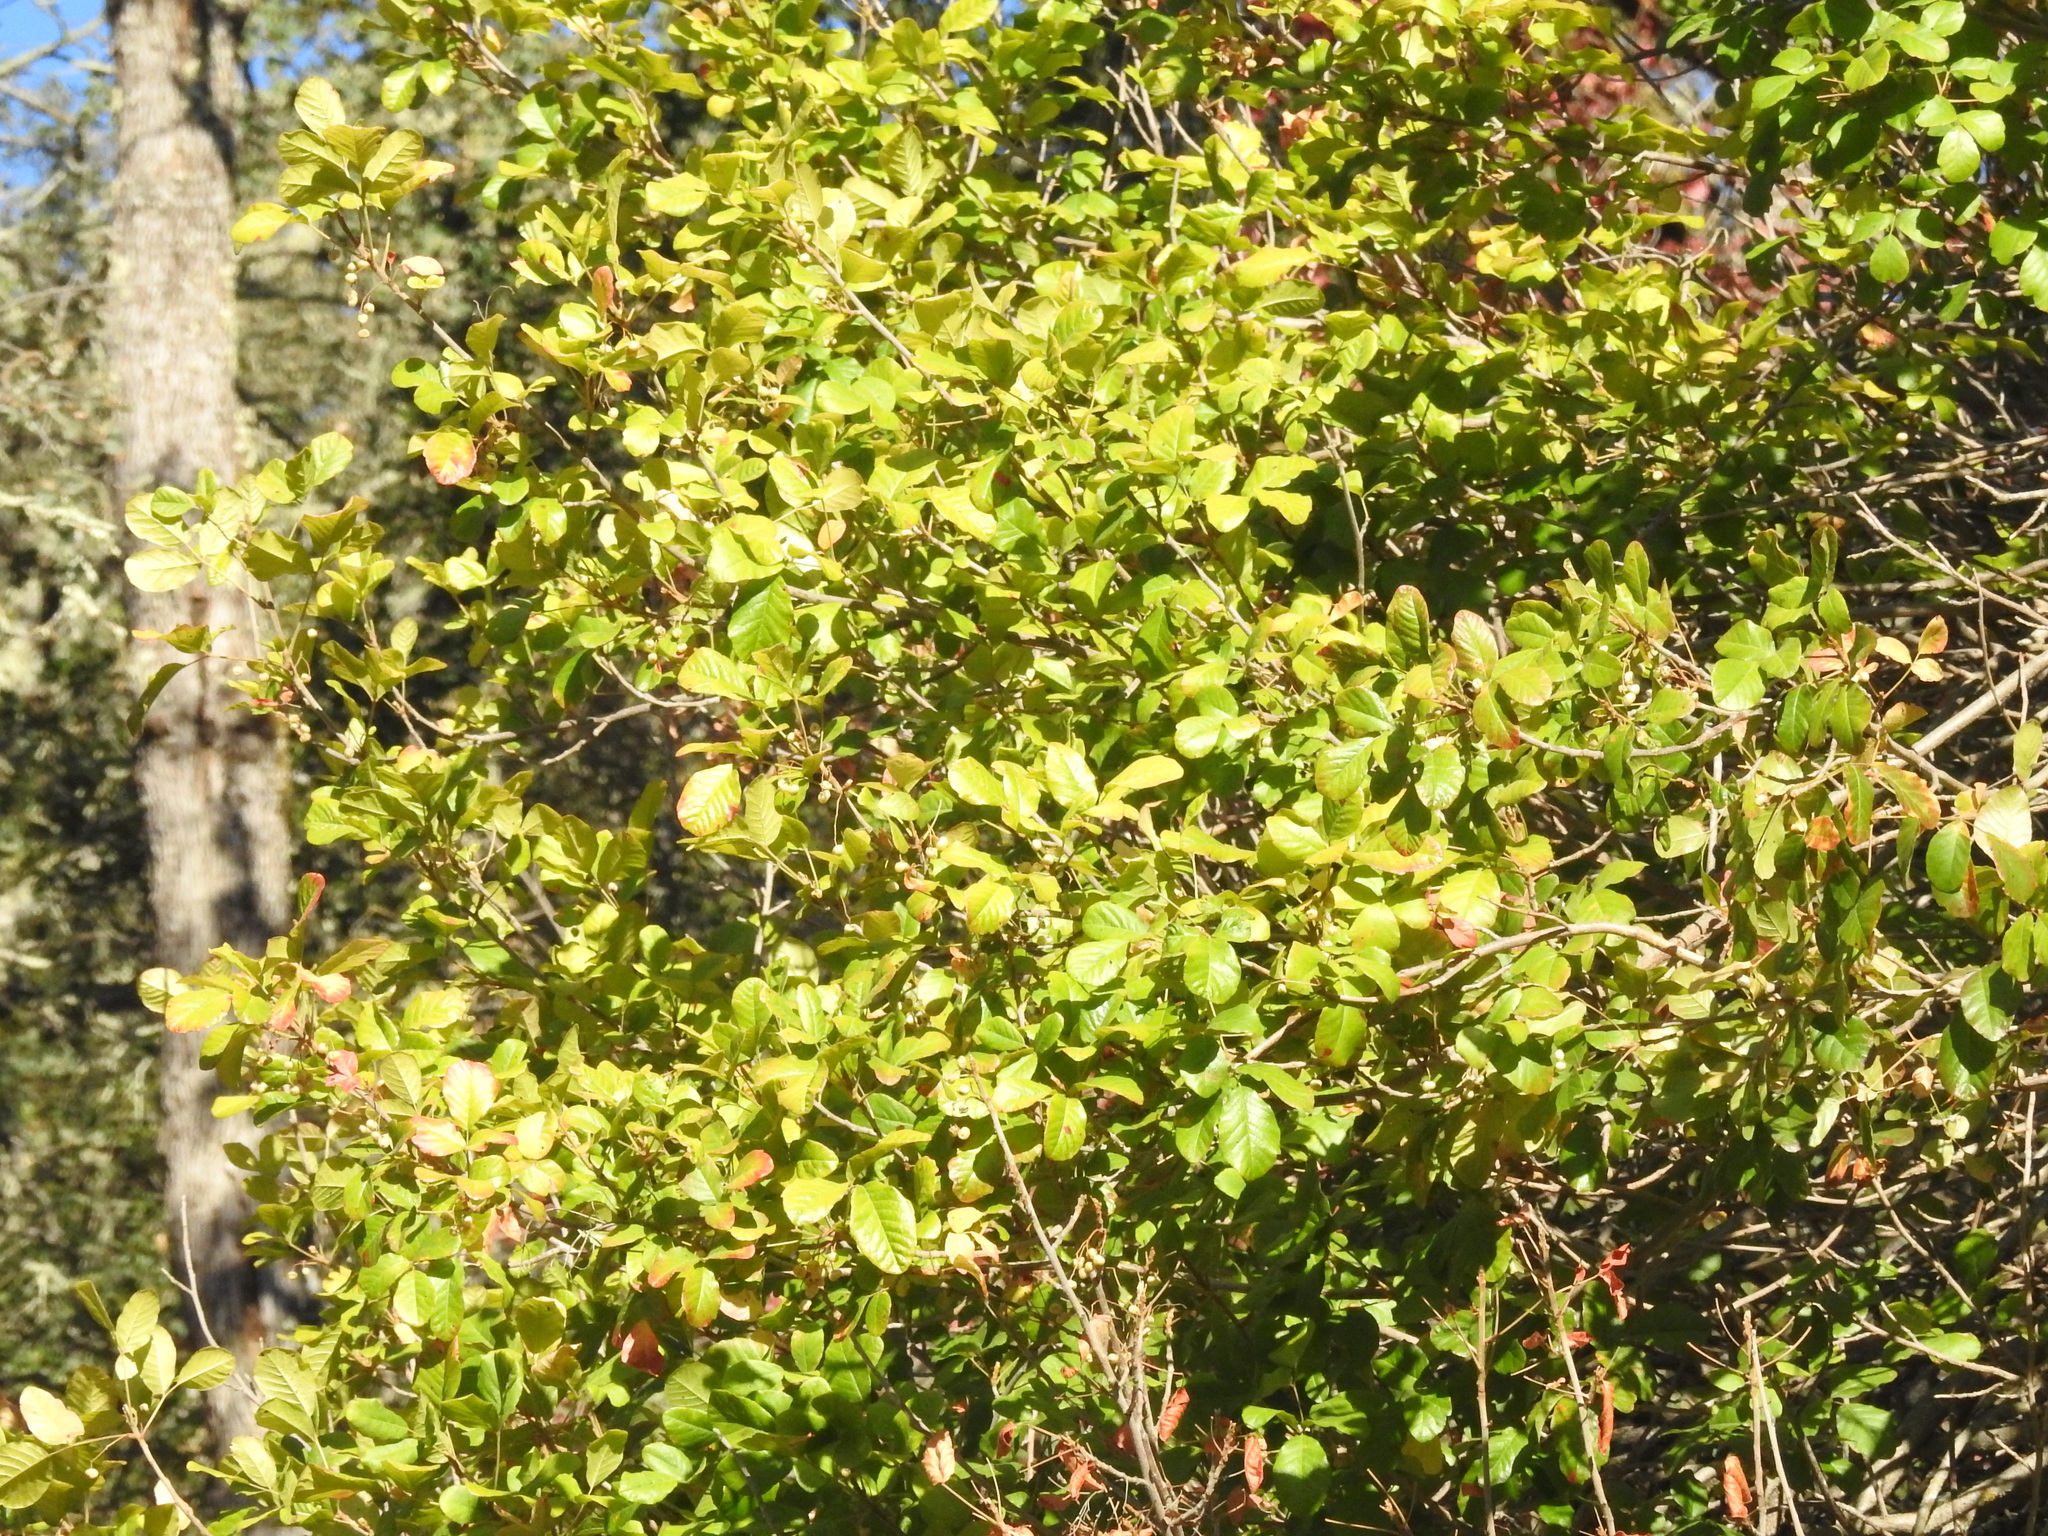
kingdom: Plantae
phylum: Tracheophyta
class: Magnoliopsida
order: Sapindales
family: Anacardiaceae
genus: Toxicodendron
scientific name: Toxicodendron diversilobum
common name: Pacific poison-oak
